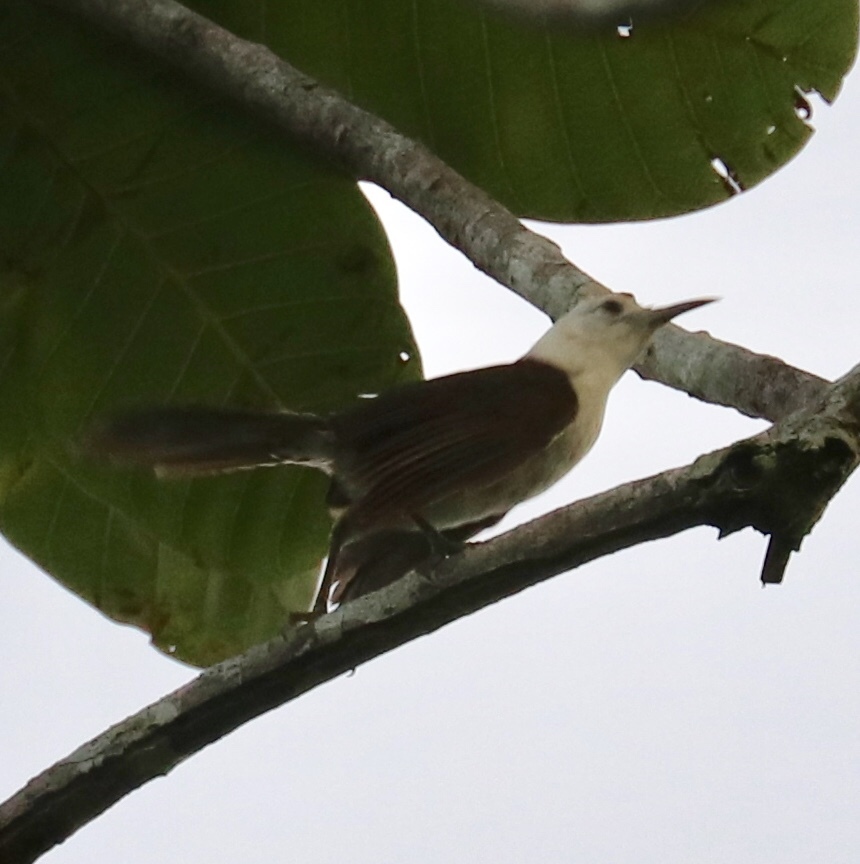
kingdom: Animalia
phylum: Chordata
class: Aves
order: Passeriformes
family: Troglodytidae
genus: Campylorhynchus
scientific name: Campylorhynchus albobrunneus
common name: White-headed wren
